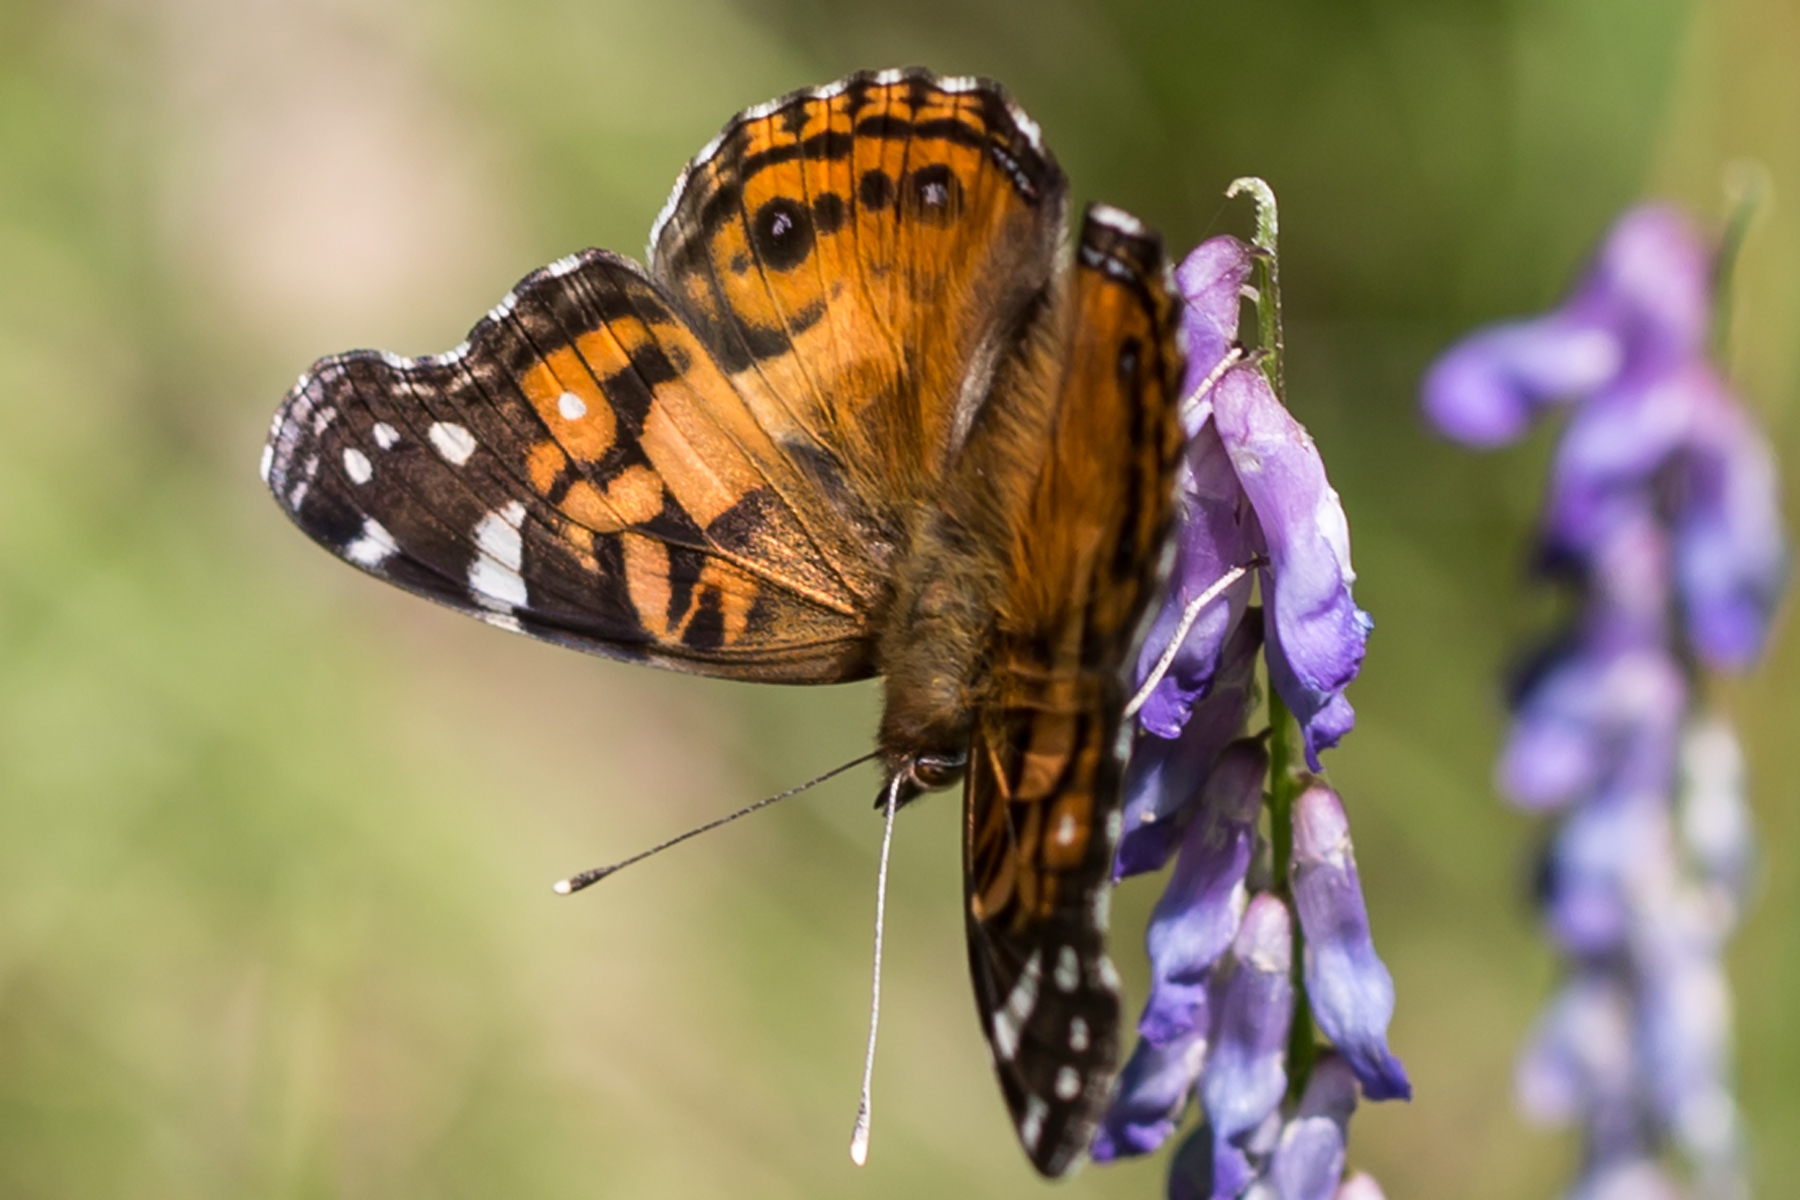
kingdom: Animalia
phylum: Arthropoda
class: Insecta
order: Lepidoptera
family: Nymphalidae
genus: Vanessa
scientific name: Vanessa virginiensis
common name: American lady
